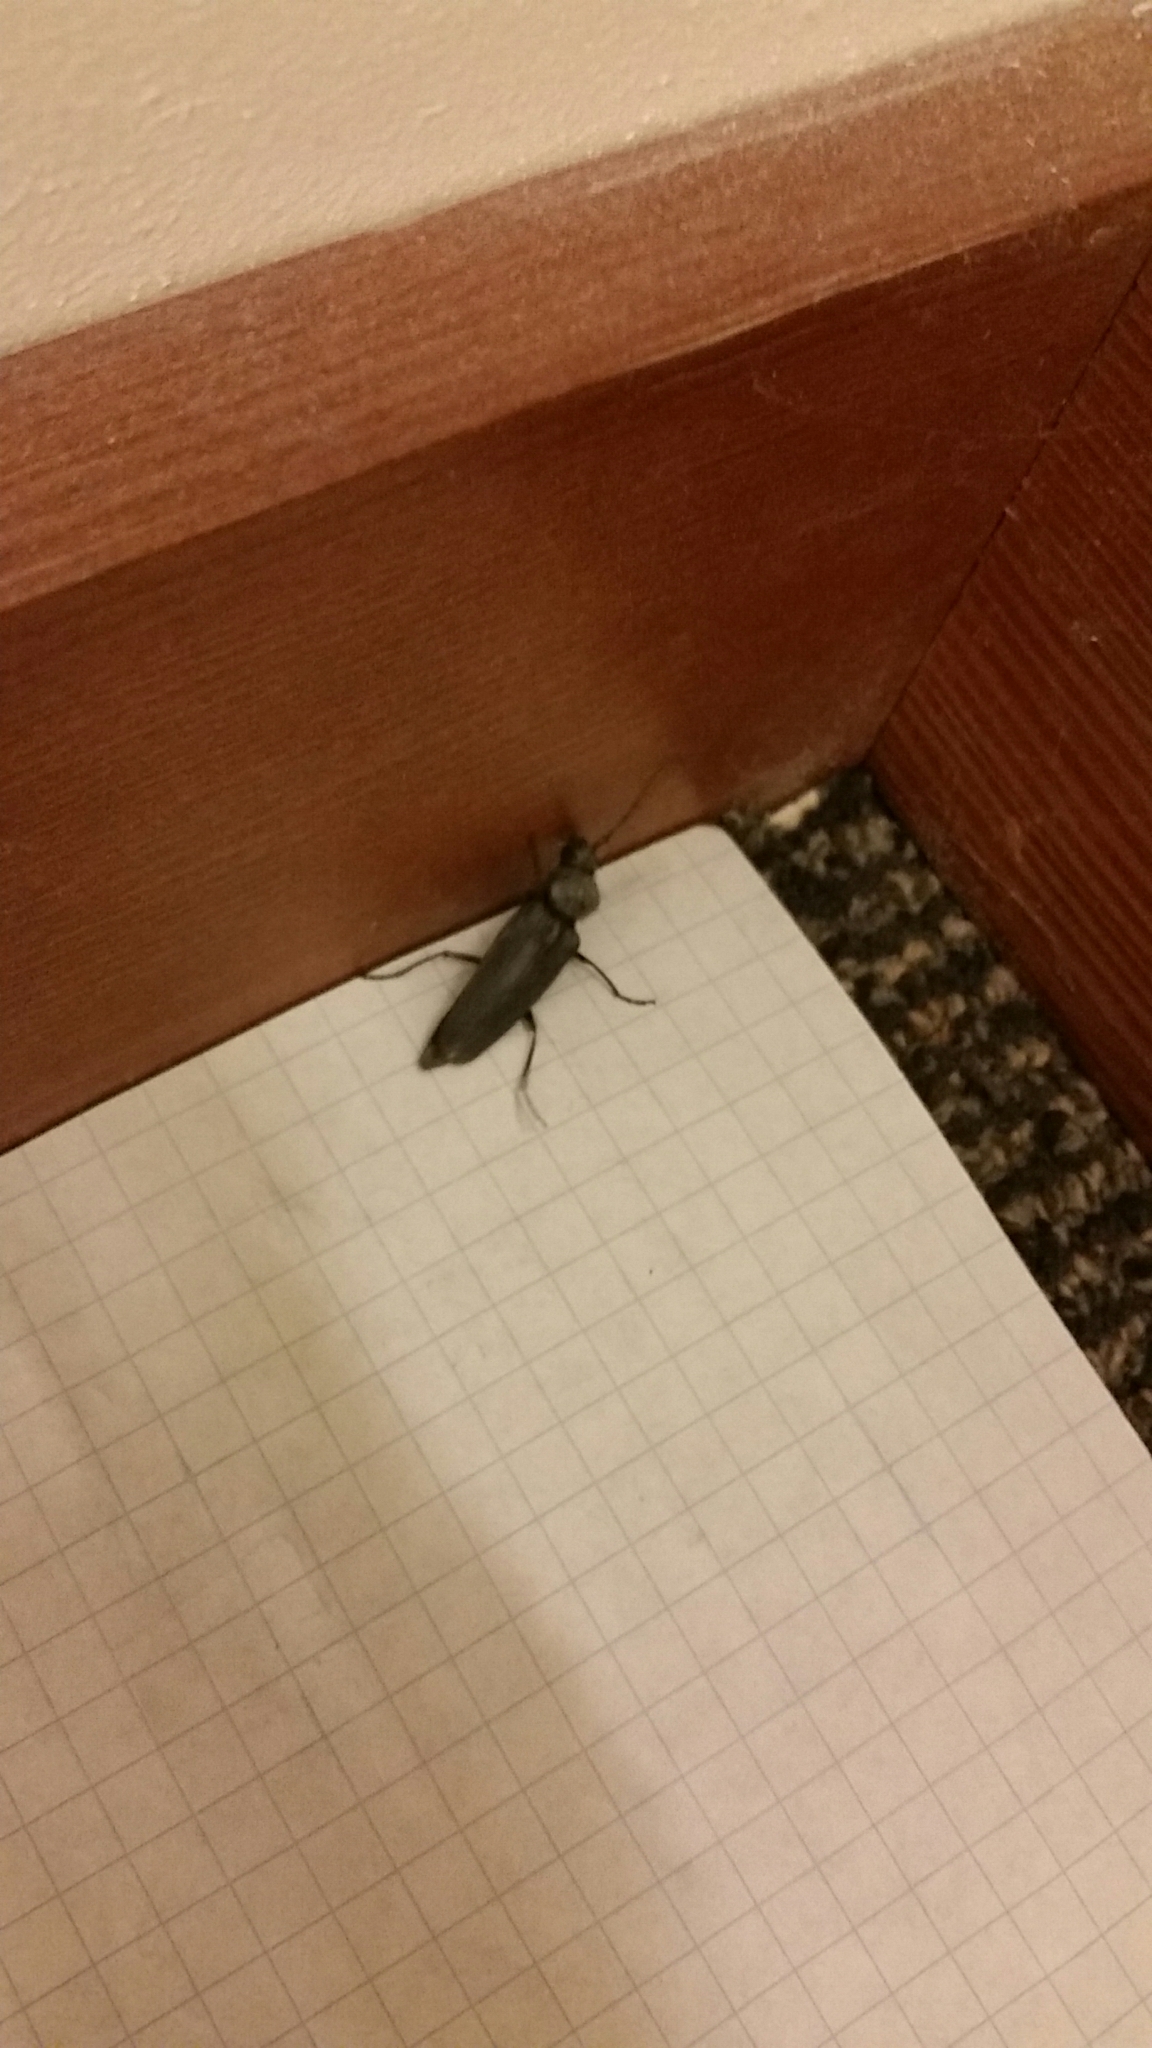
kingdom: Animalia
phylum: Arthropoda
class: Insecta
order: Coleoptera
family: Cerambycidae
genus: Arhopalus
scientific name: Arhopalus asperatus
